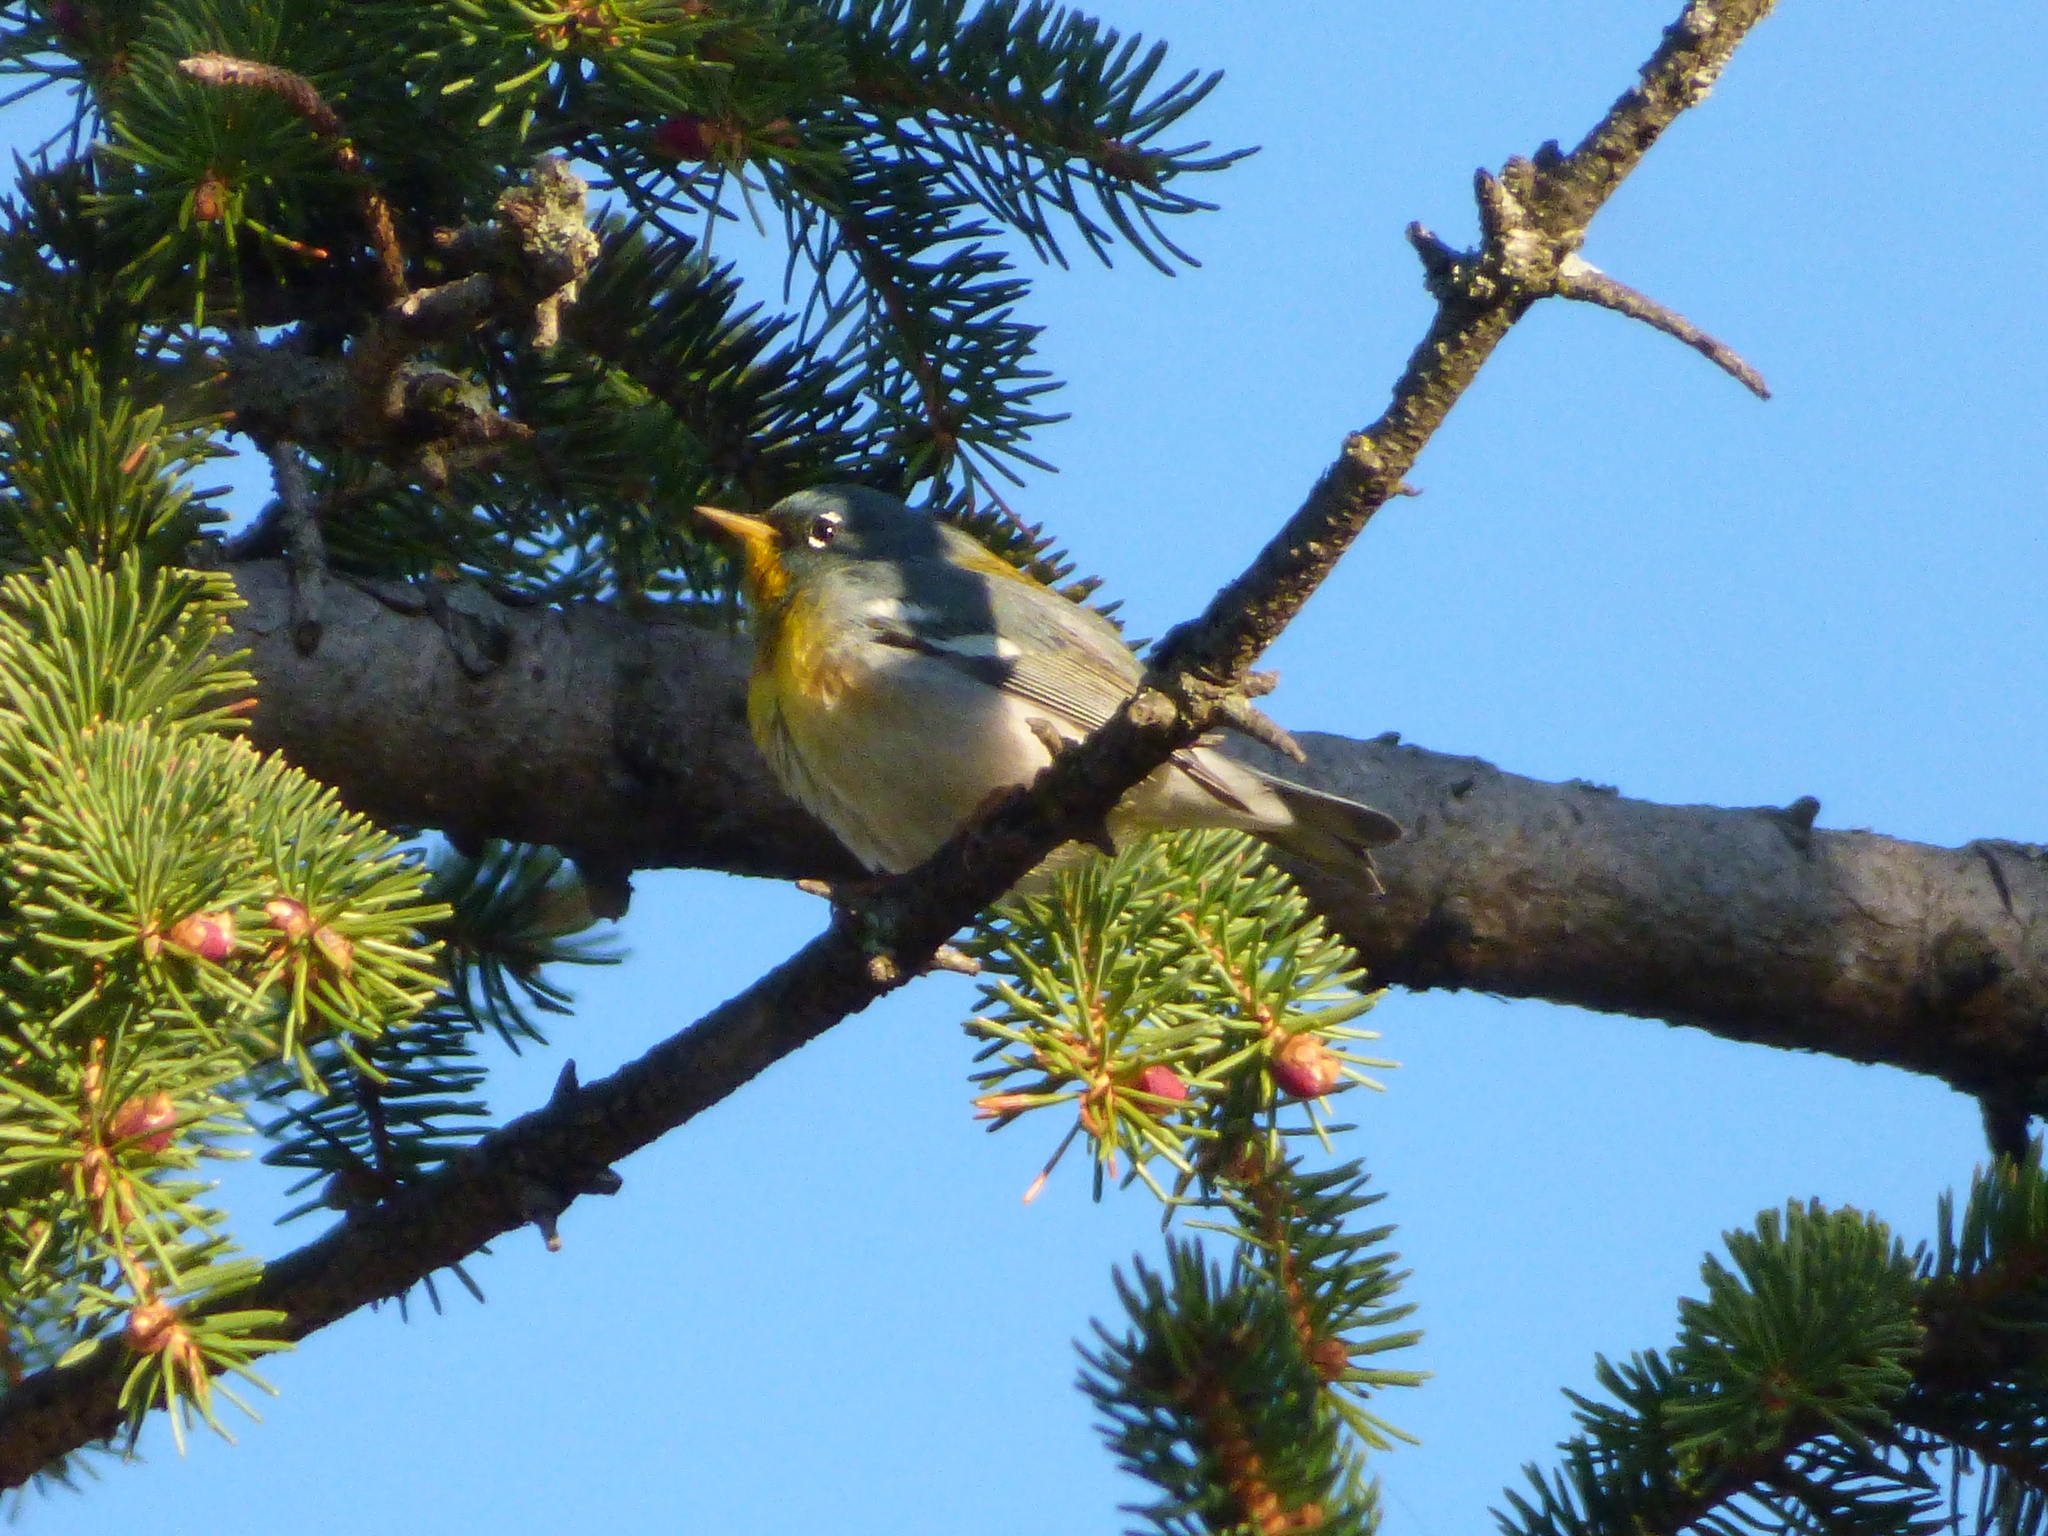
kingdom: Animalia
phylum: Chordata
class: Aves
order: Passeriformes
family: Parulidae
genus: Setophaga
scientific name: Setophaga americana
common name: Northern parula
